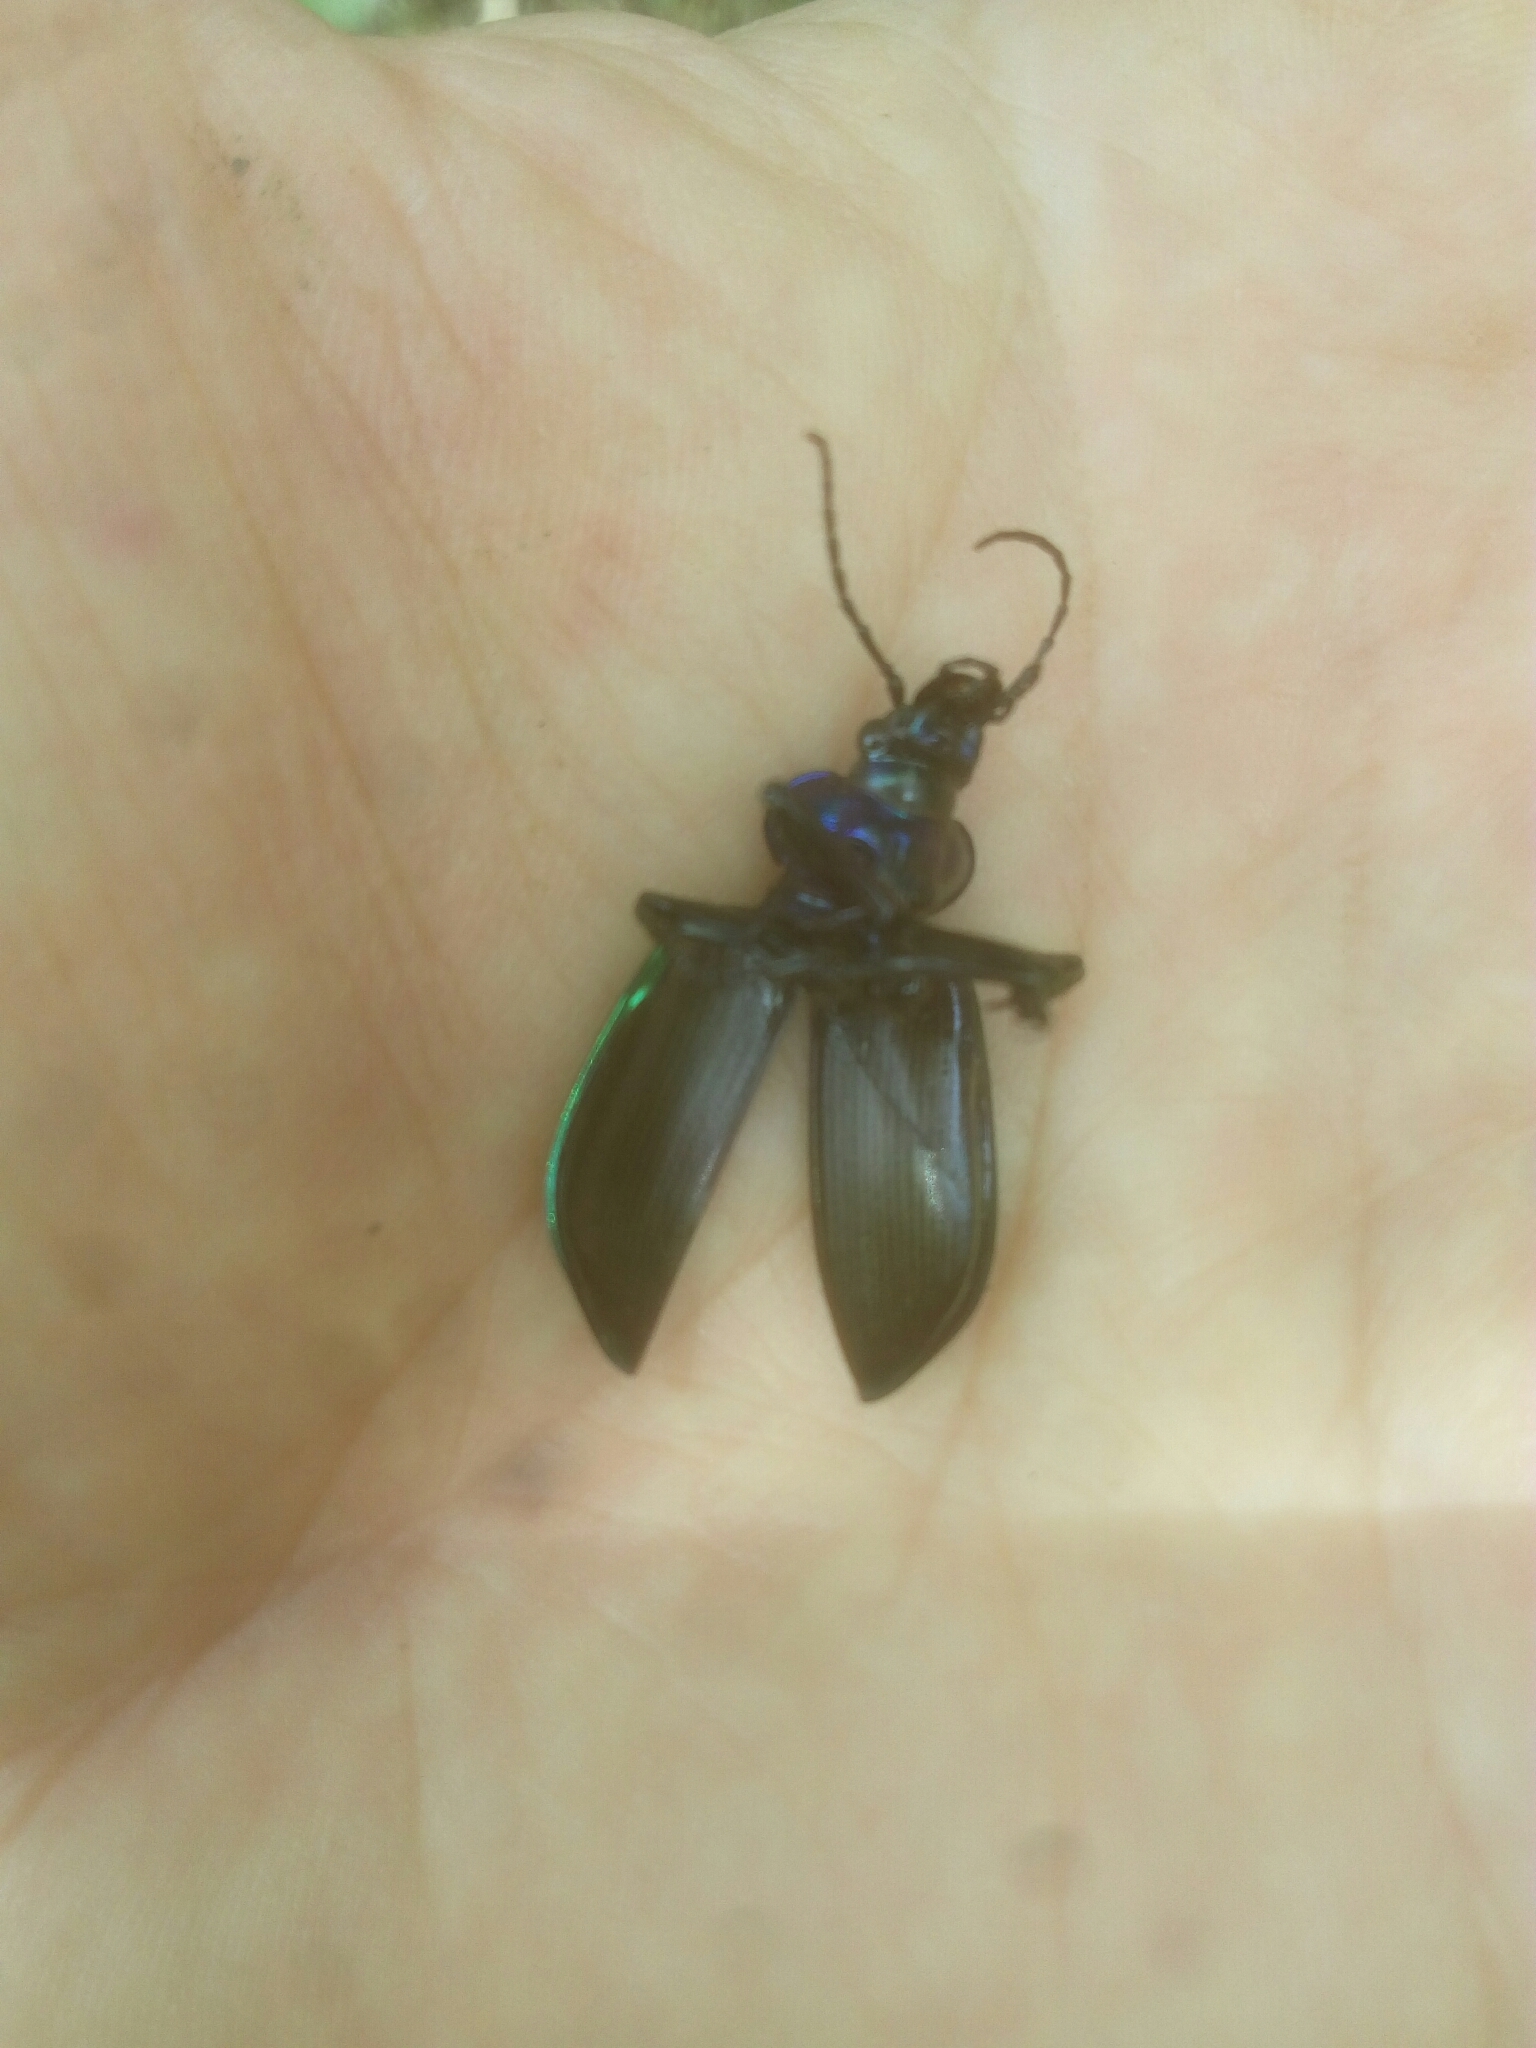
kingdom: Animalia
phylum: Arthropoda
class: Insecta
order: Coleoptera
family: Carabidae
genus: Calosoma
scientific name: Calosoma sycophanta
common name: Forest caterpillar hunter
